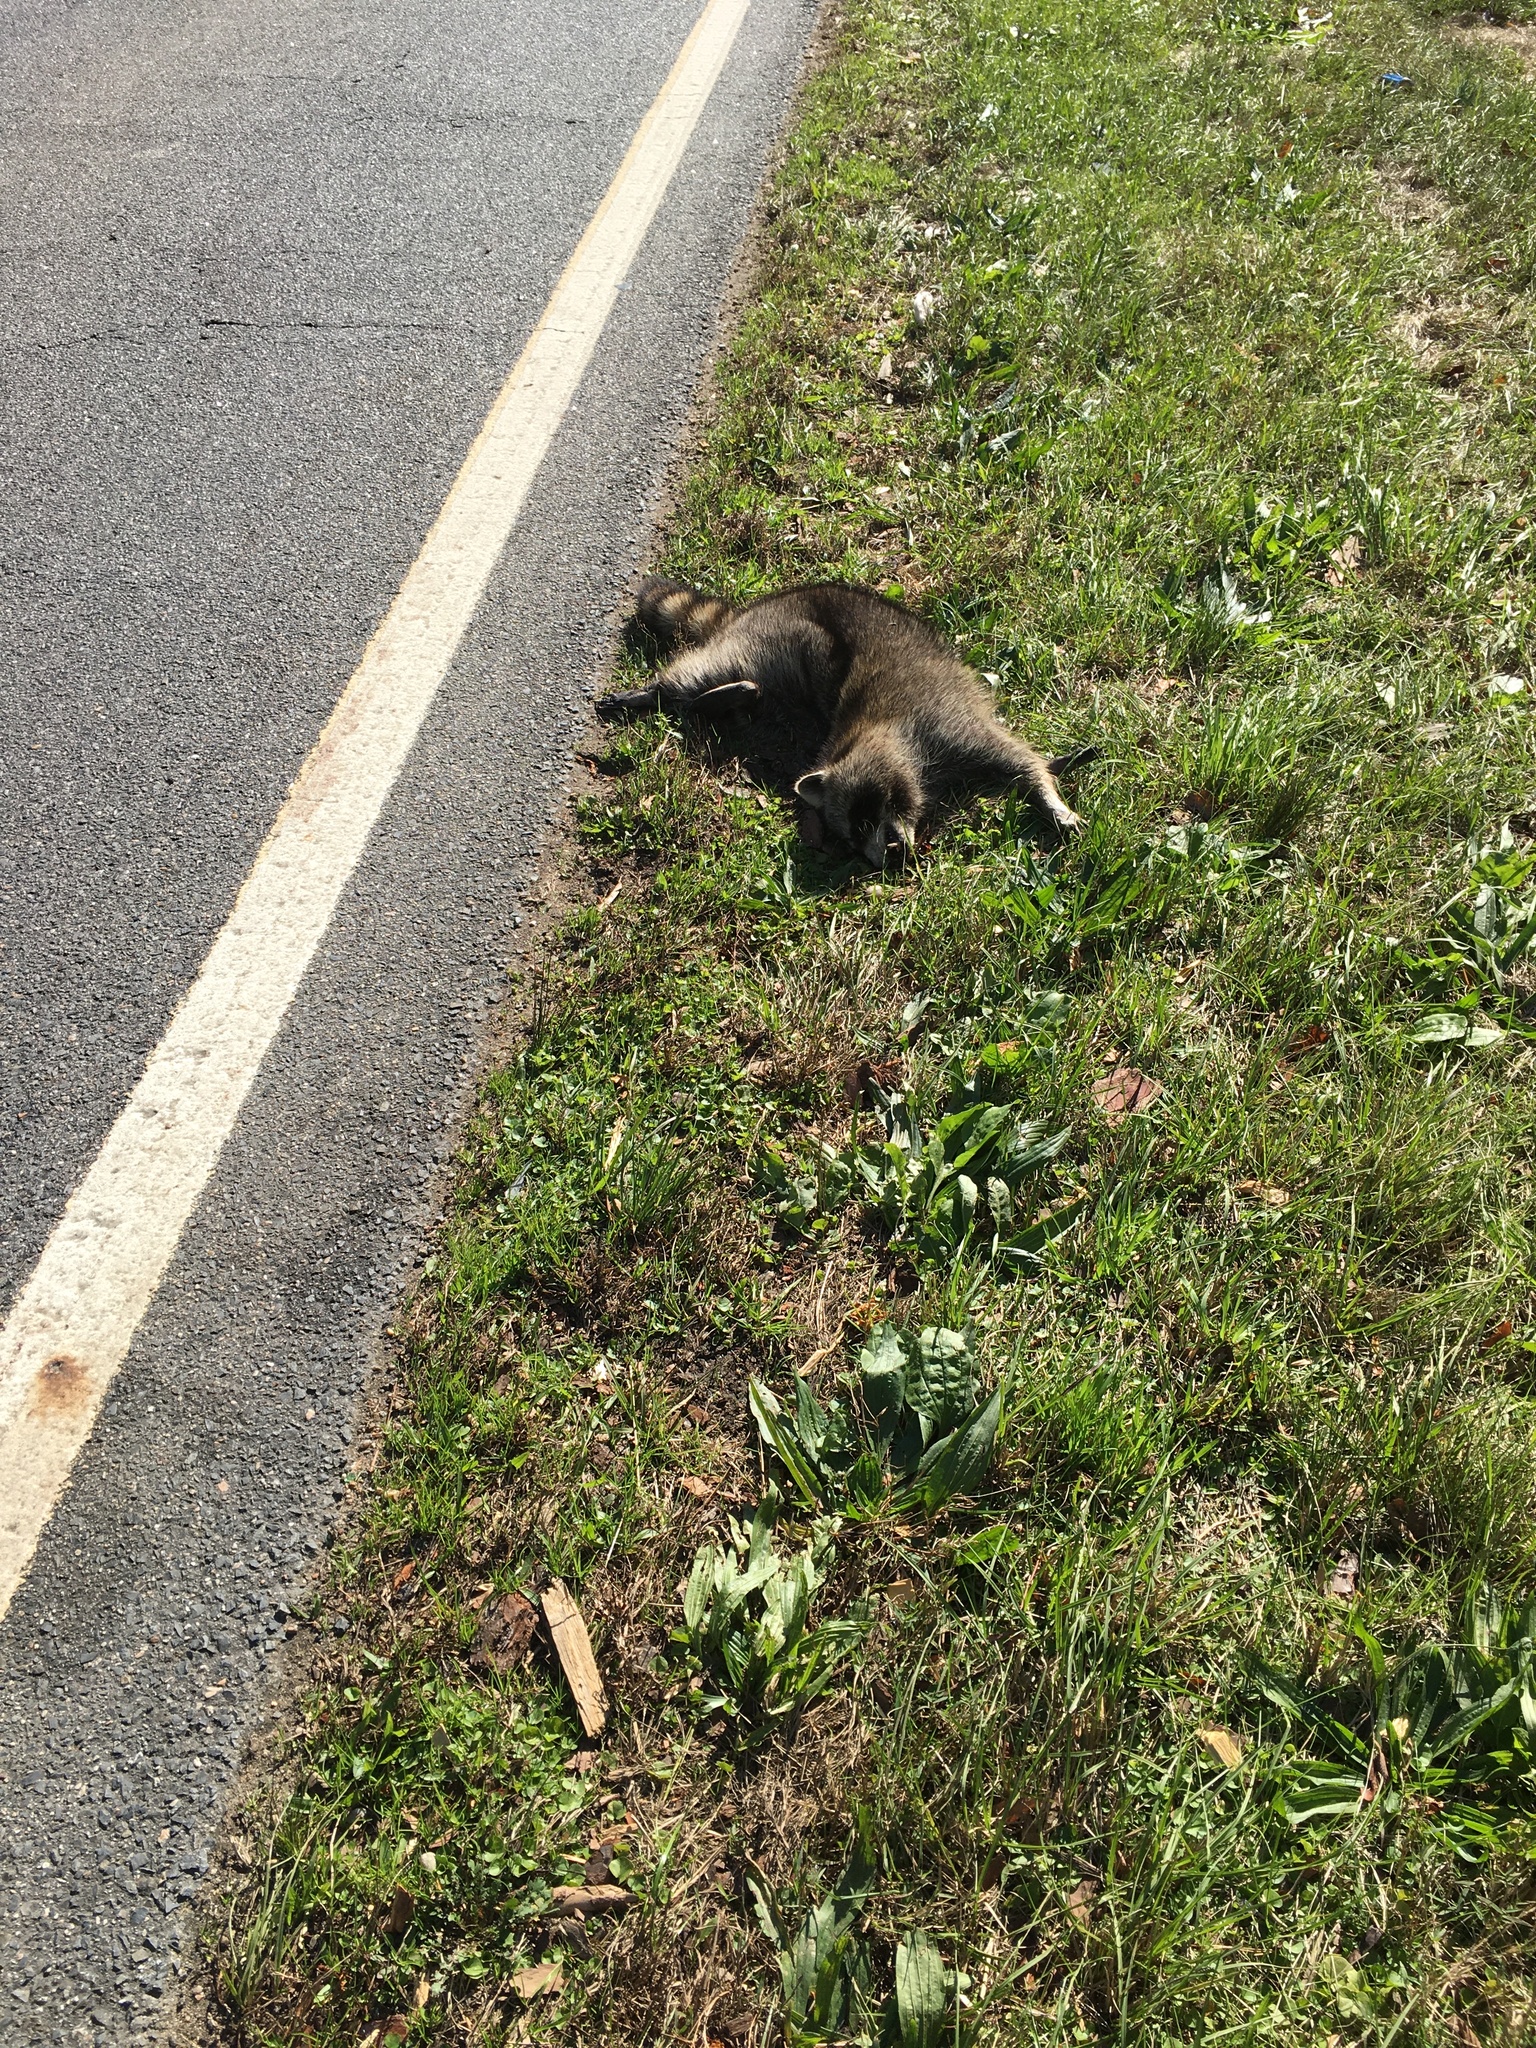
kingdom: Animalia
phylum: Chordata
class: Mammalia
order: Carnivora
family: Procyonidae
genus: Procyon
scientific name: Procyon lotor
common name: Raccoon
